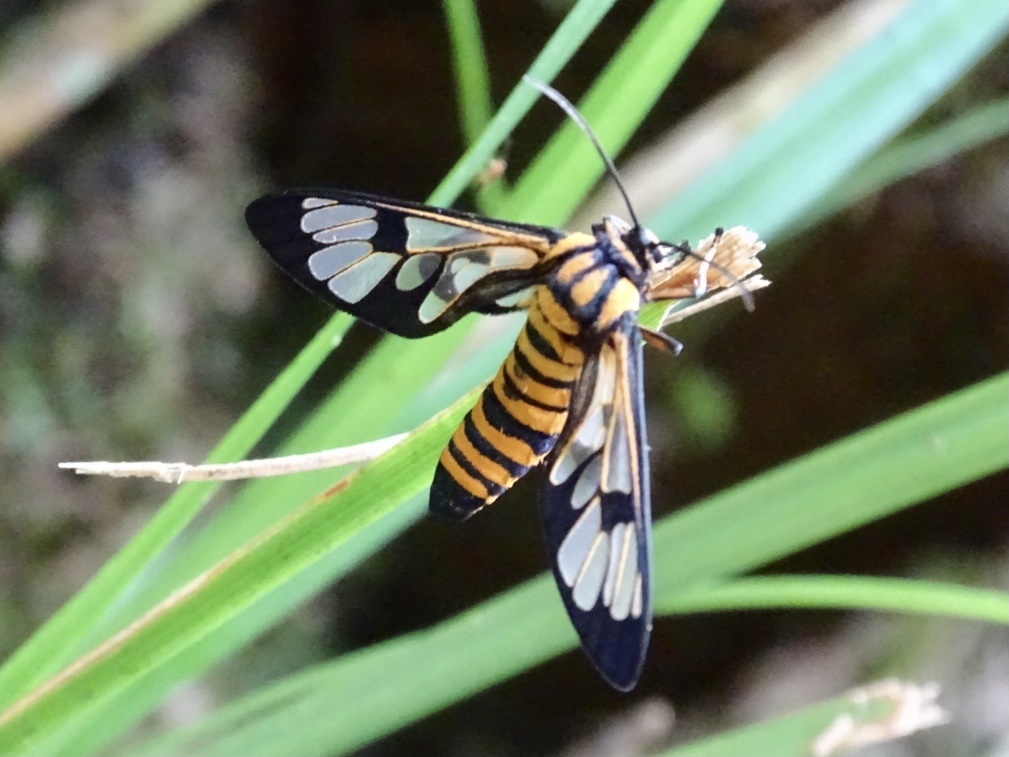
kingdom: Animalia
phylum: Arthropoda
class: Insecta
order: Lepidoptera
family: Erebidae
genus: Caeneressa
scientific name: Caeneressa diaphana
